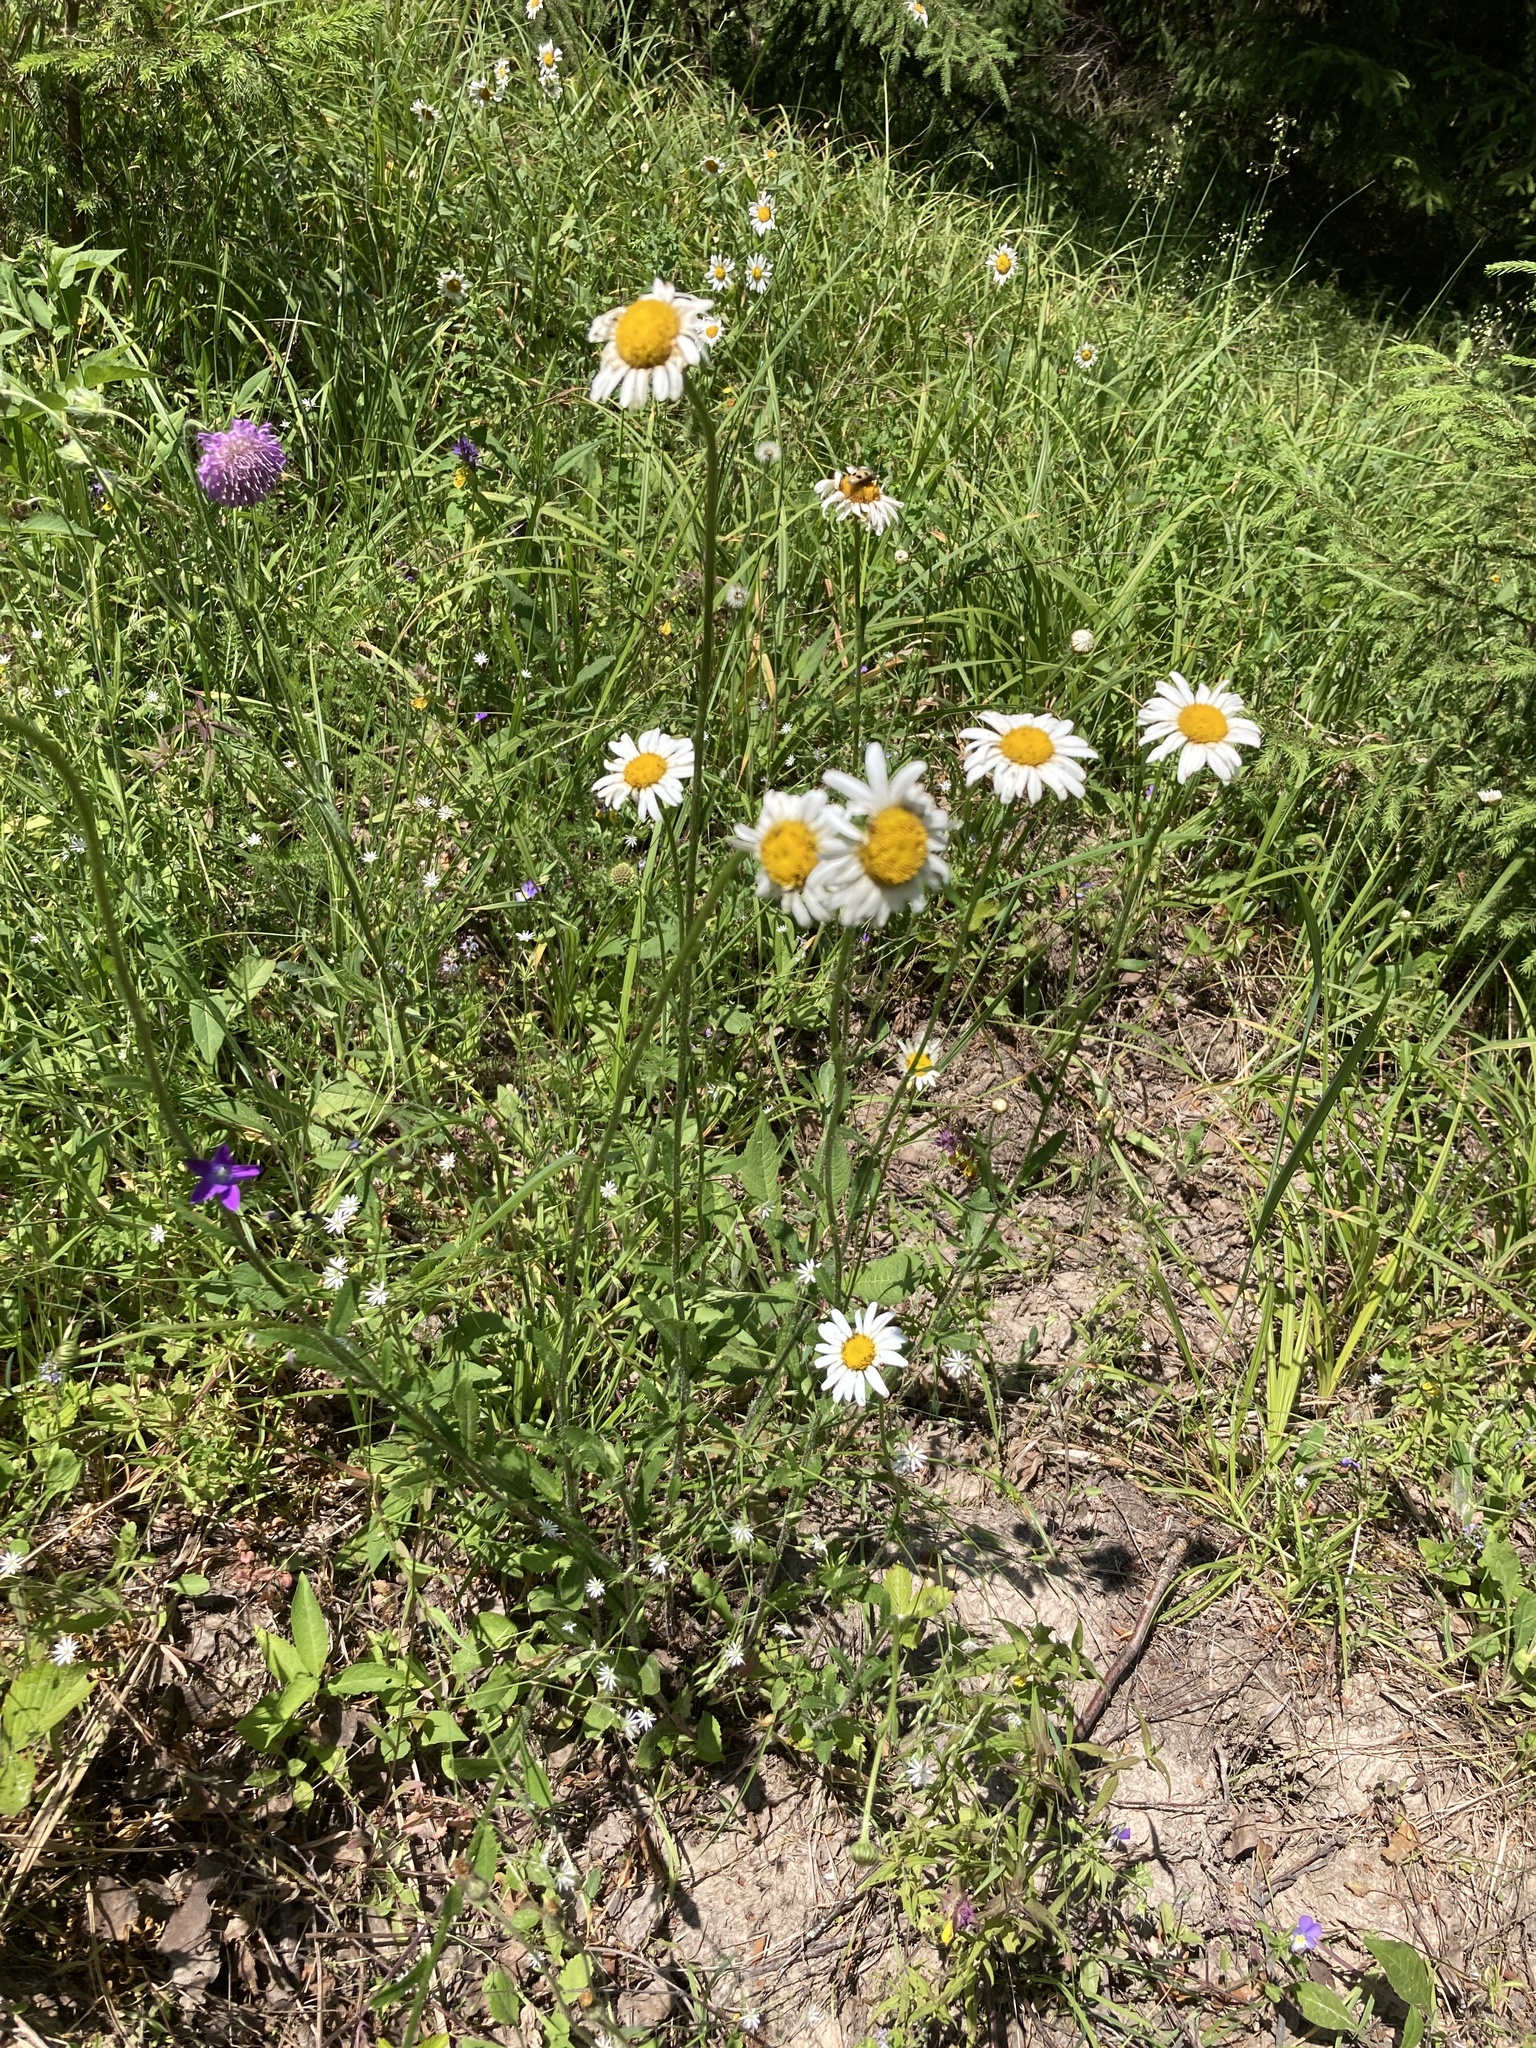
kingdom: Plantae
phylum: Tracheophyta
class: Magnoliopsida
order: Asterales
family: Asteraceae
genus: Leucanthemum
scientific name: Leucanthemum vulgare
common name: Oxeye daisy
